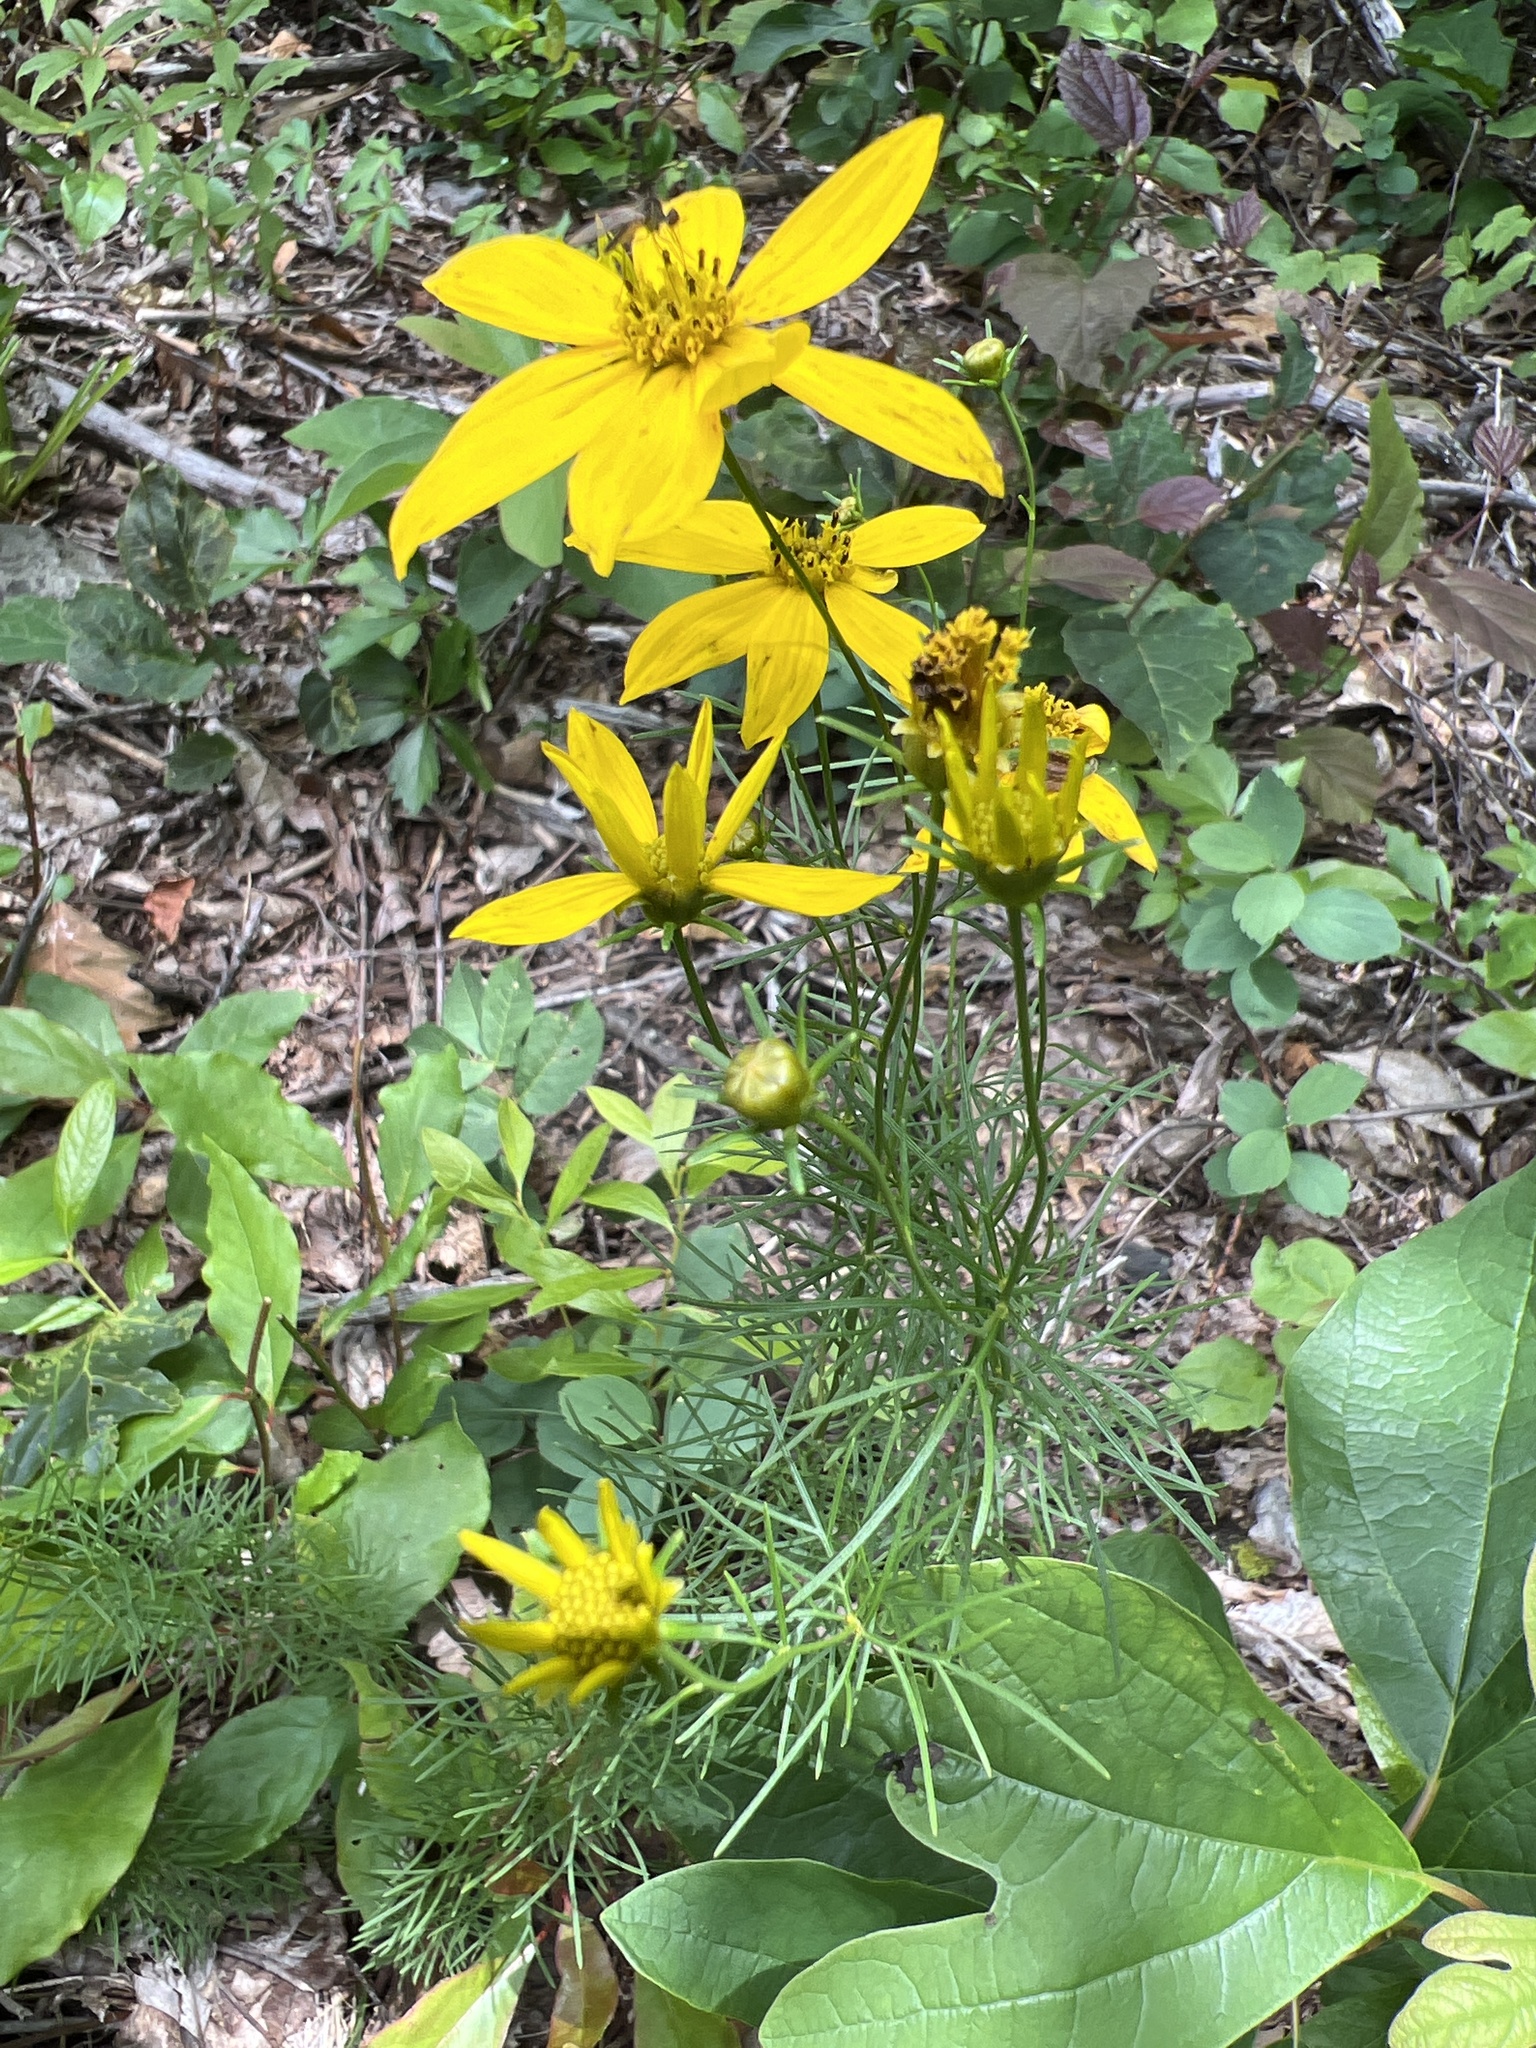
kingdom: Plantae
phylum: Tracheophyta
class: Magnoliopsida
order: Asterales
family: Asteraceae
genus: Coreopsis
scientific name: Coreopsis verticillata
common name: Whorled tickseed
